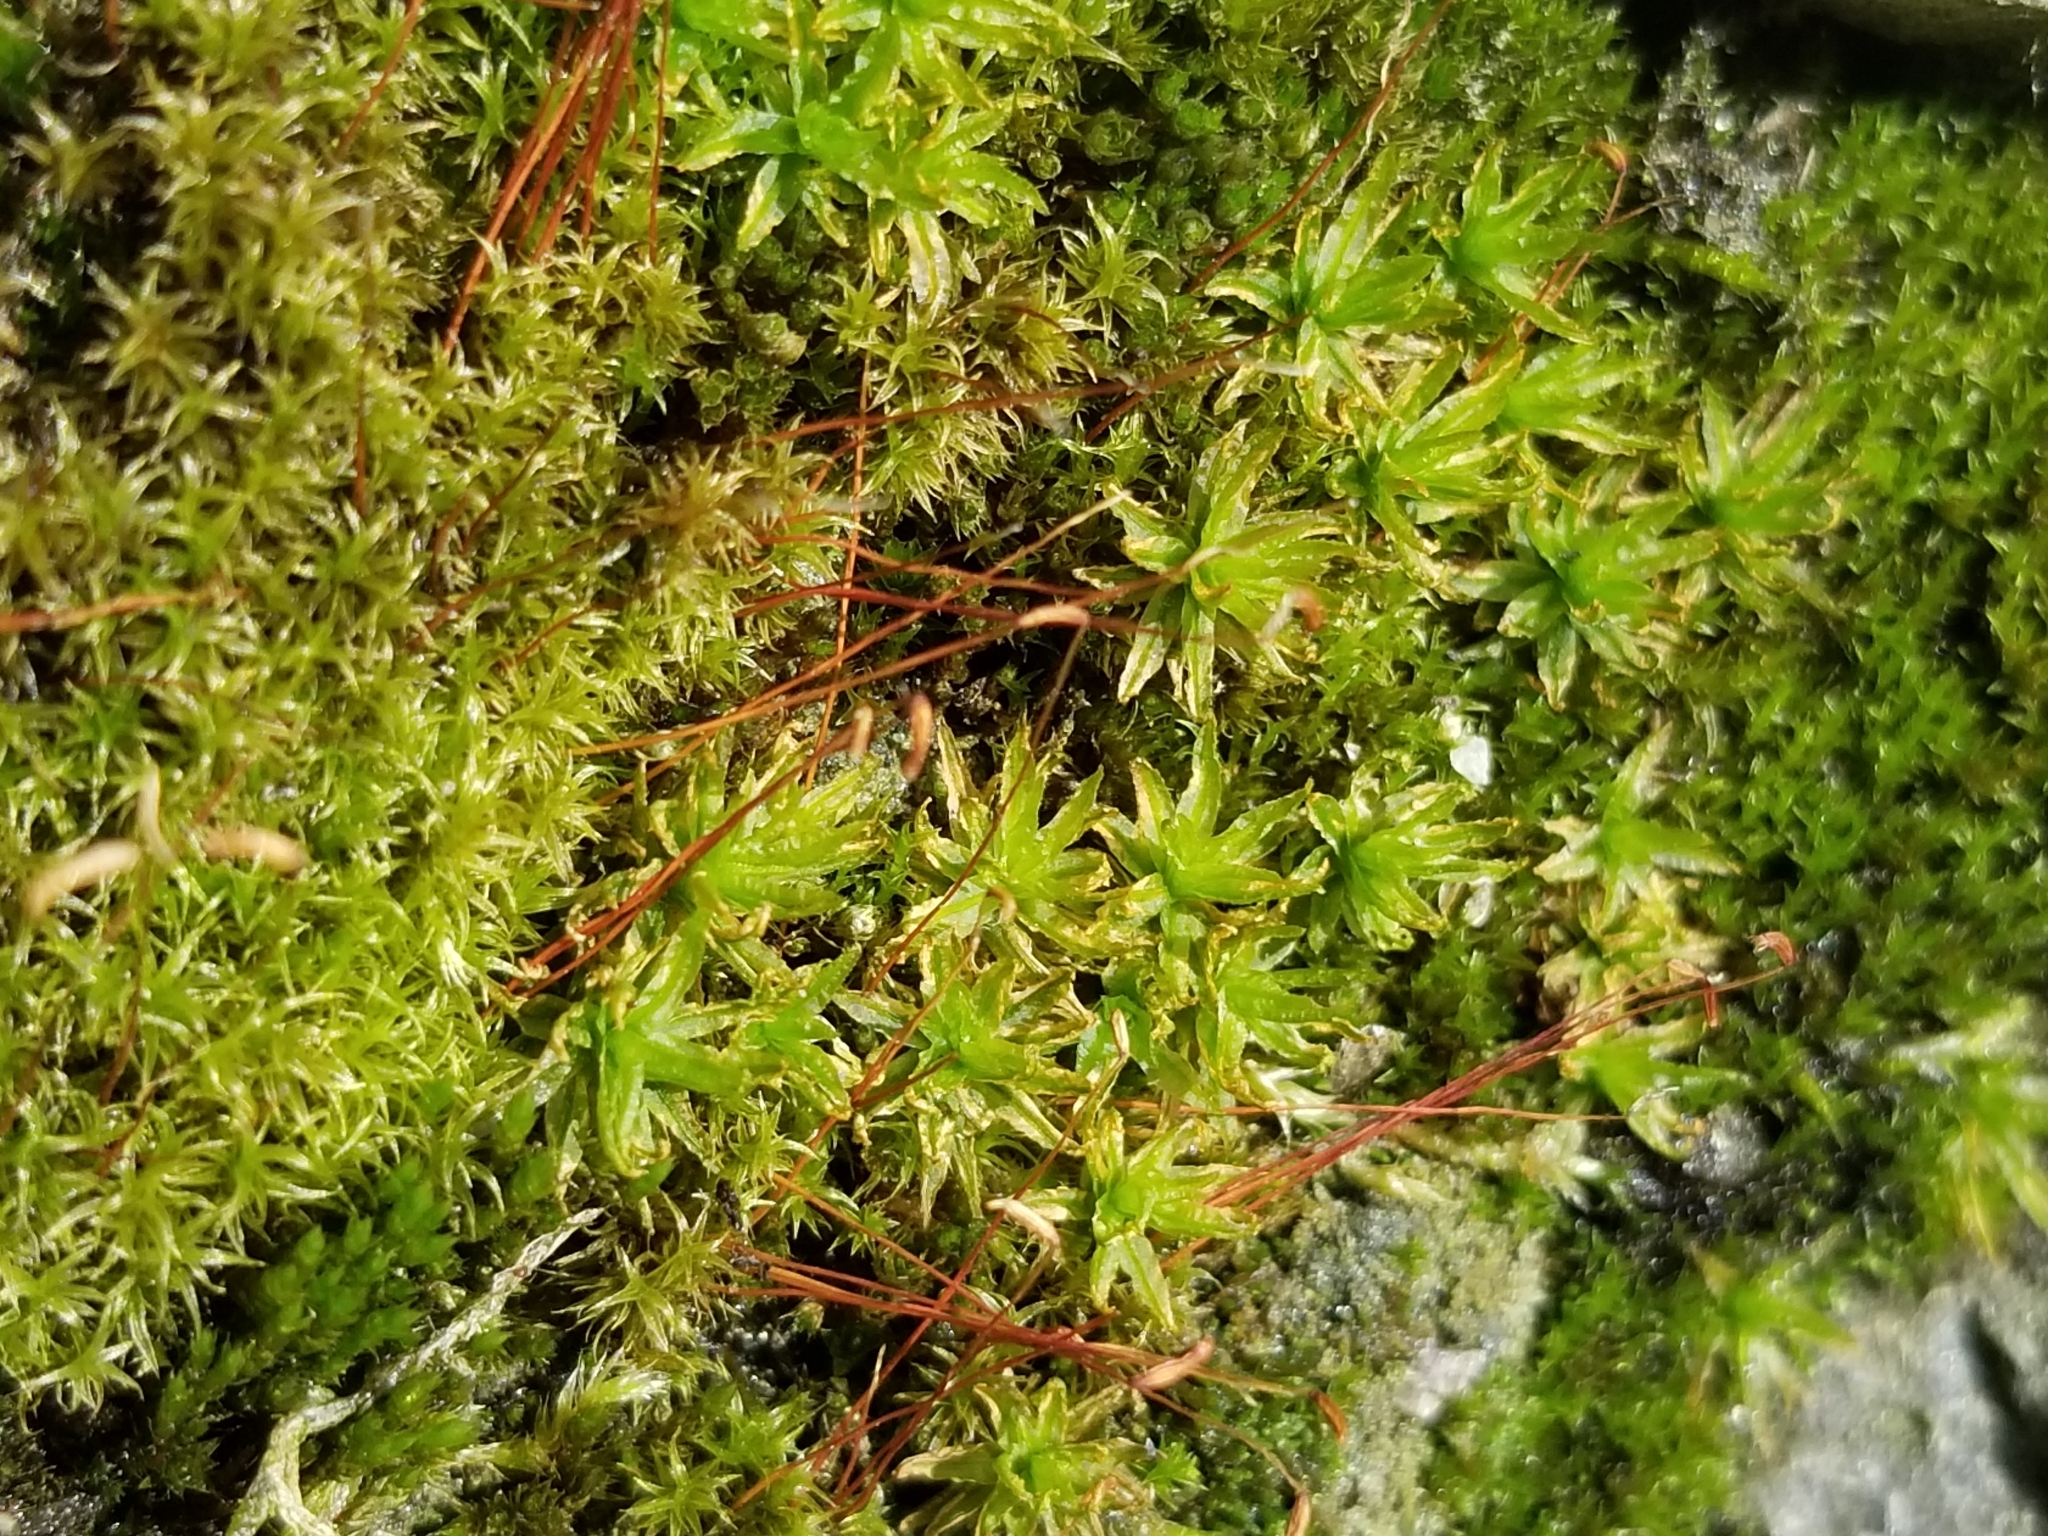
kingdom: Plantae
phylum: Bryophyta
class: Polytrichopsida
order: Polytrichales
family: Polytrichaceae
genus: Atrichum
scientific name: Atrichum angustatum
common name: Lesser smoothcap
